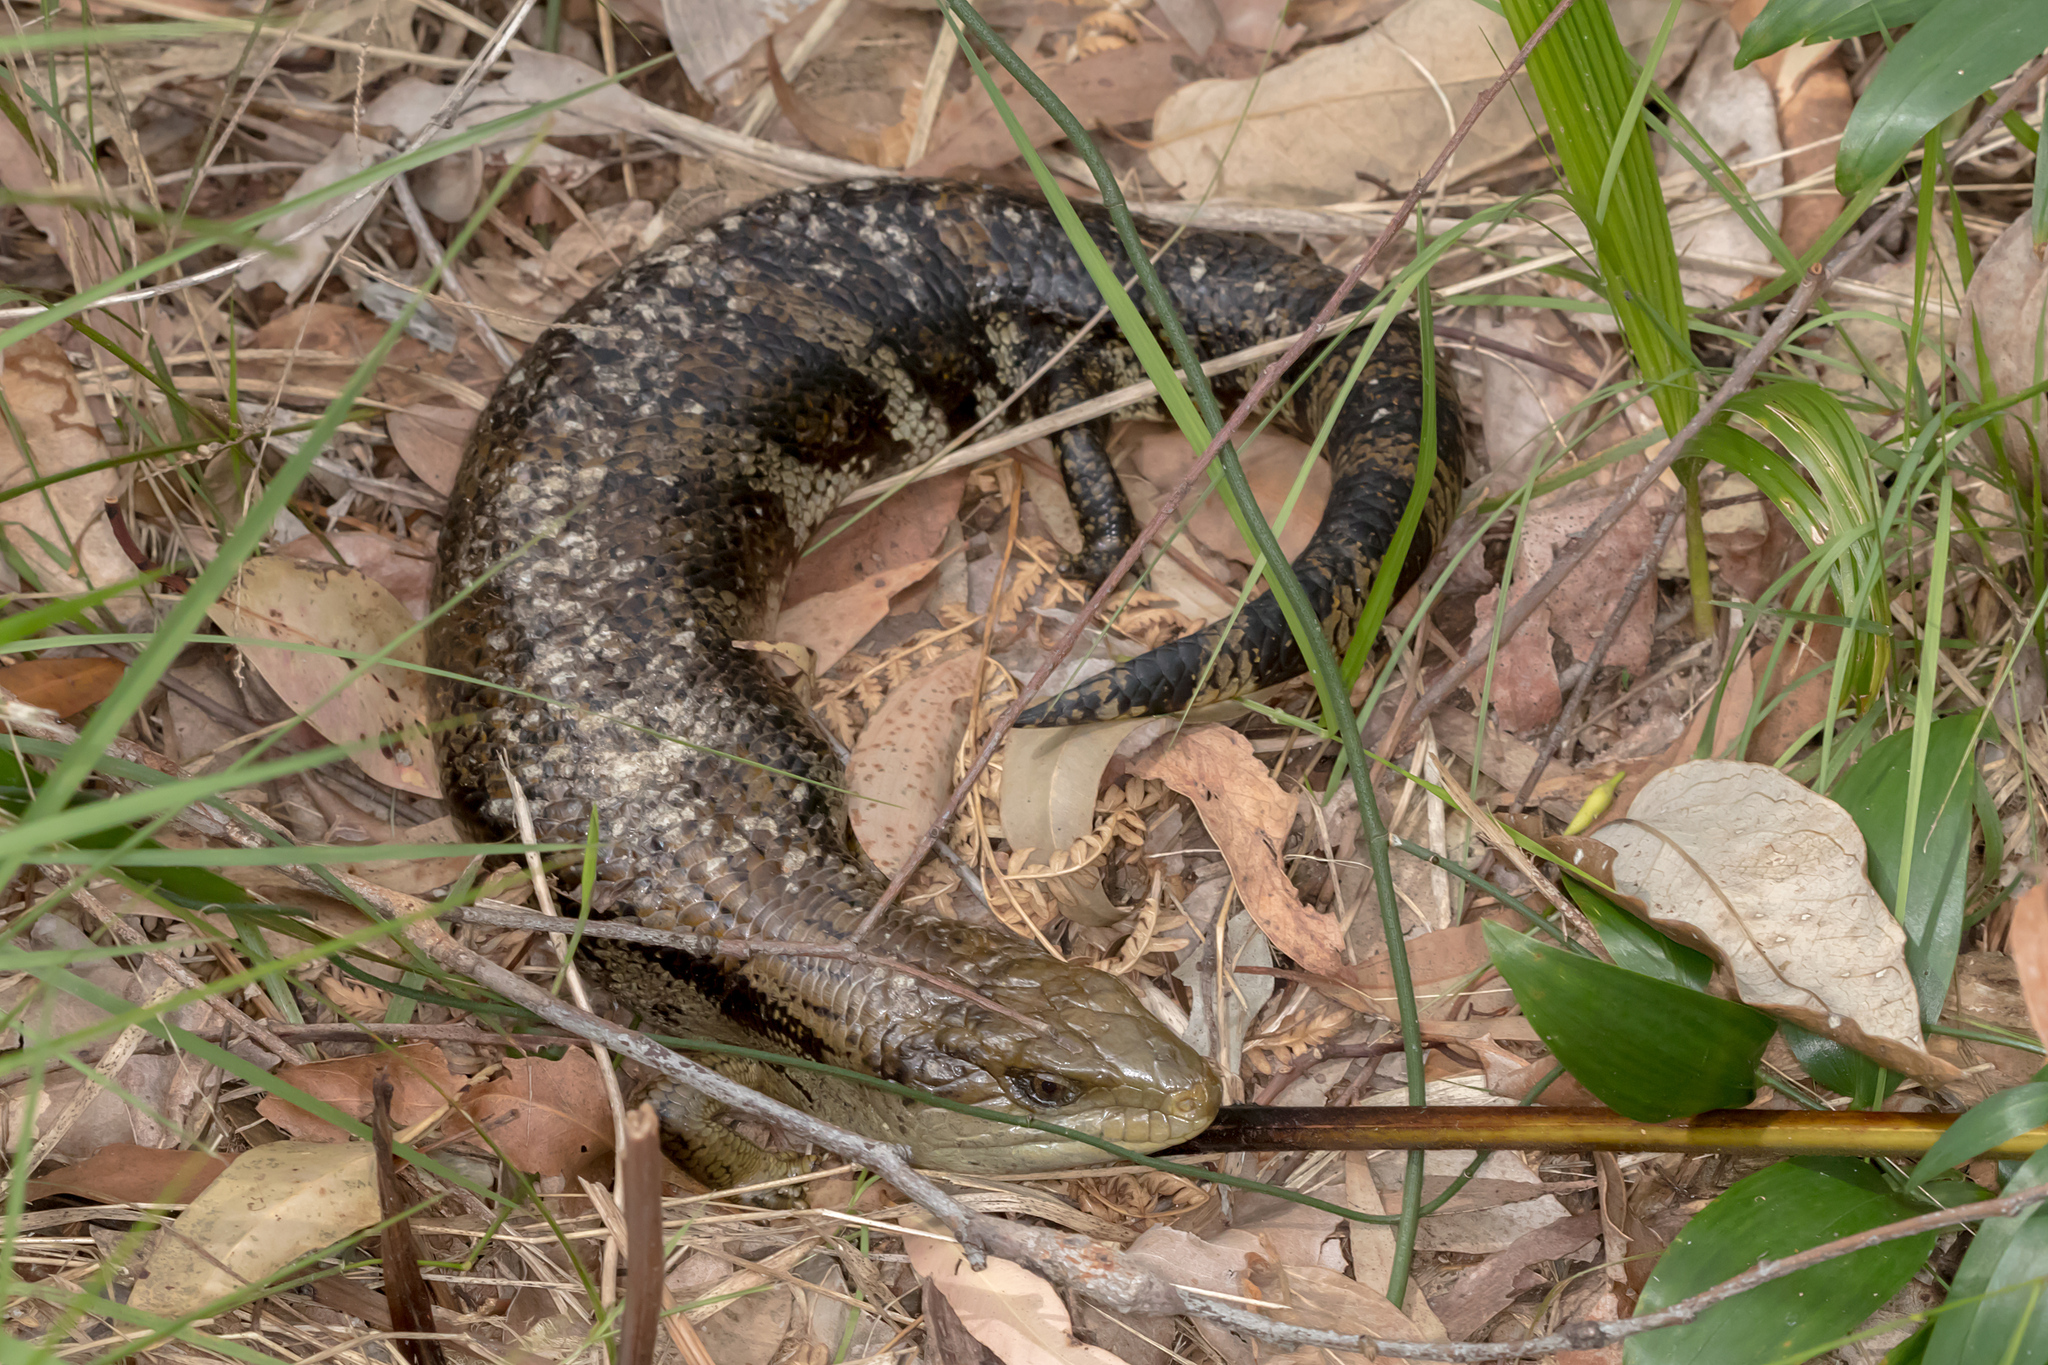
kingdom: Animalia
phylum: Chordata
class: Squamata
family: Scincidae
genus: Tiliqua
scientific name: Tiliqua scincoides
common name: Common bluetongue
